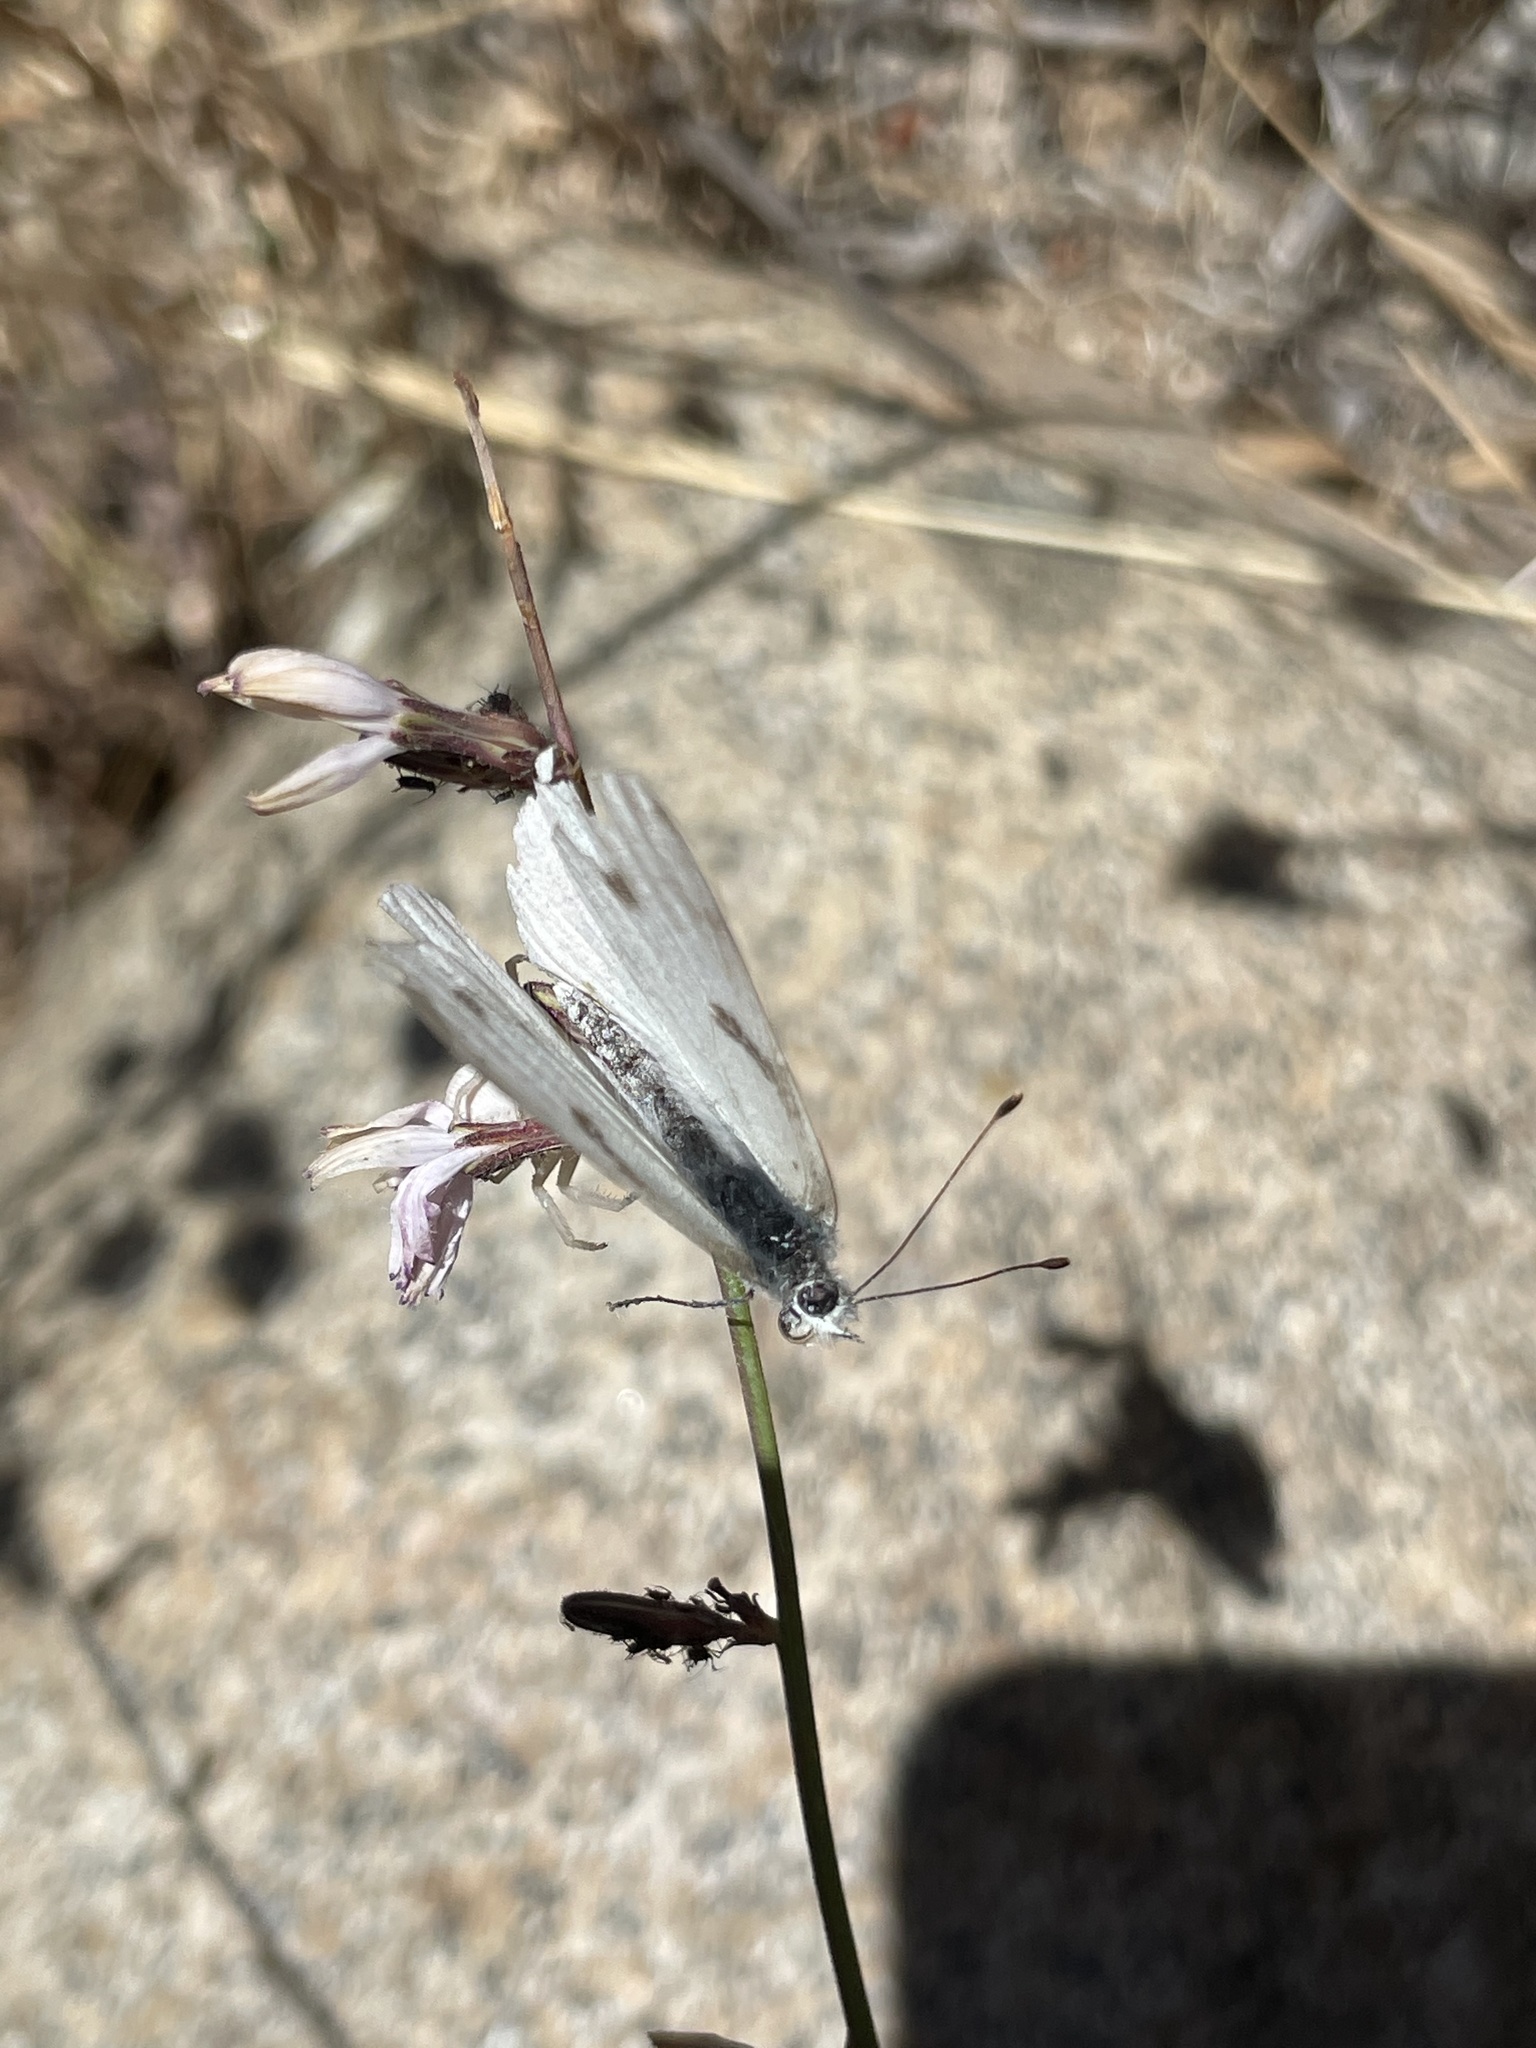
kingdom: Animalia
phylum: Arthropoda
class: Insecta
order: Lepidoptera
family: Pieridae
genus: Pontia
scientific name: Pontia protodice
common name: Checkered white
